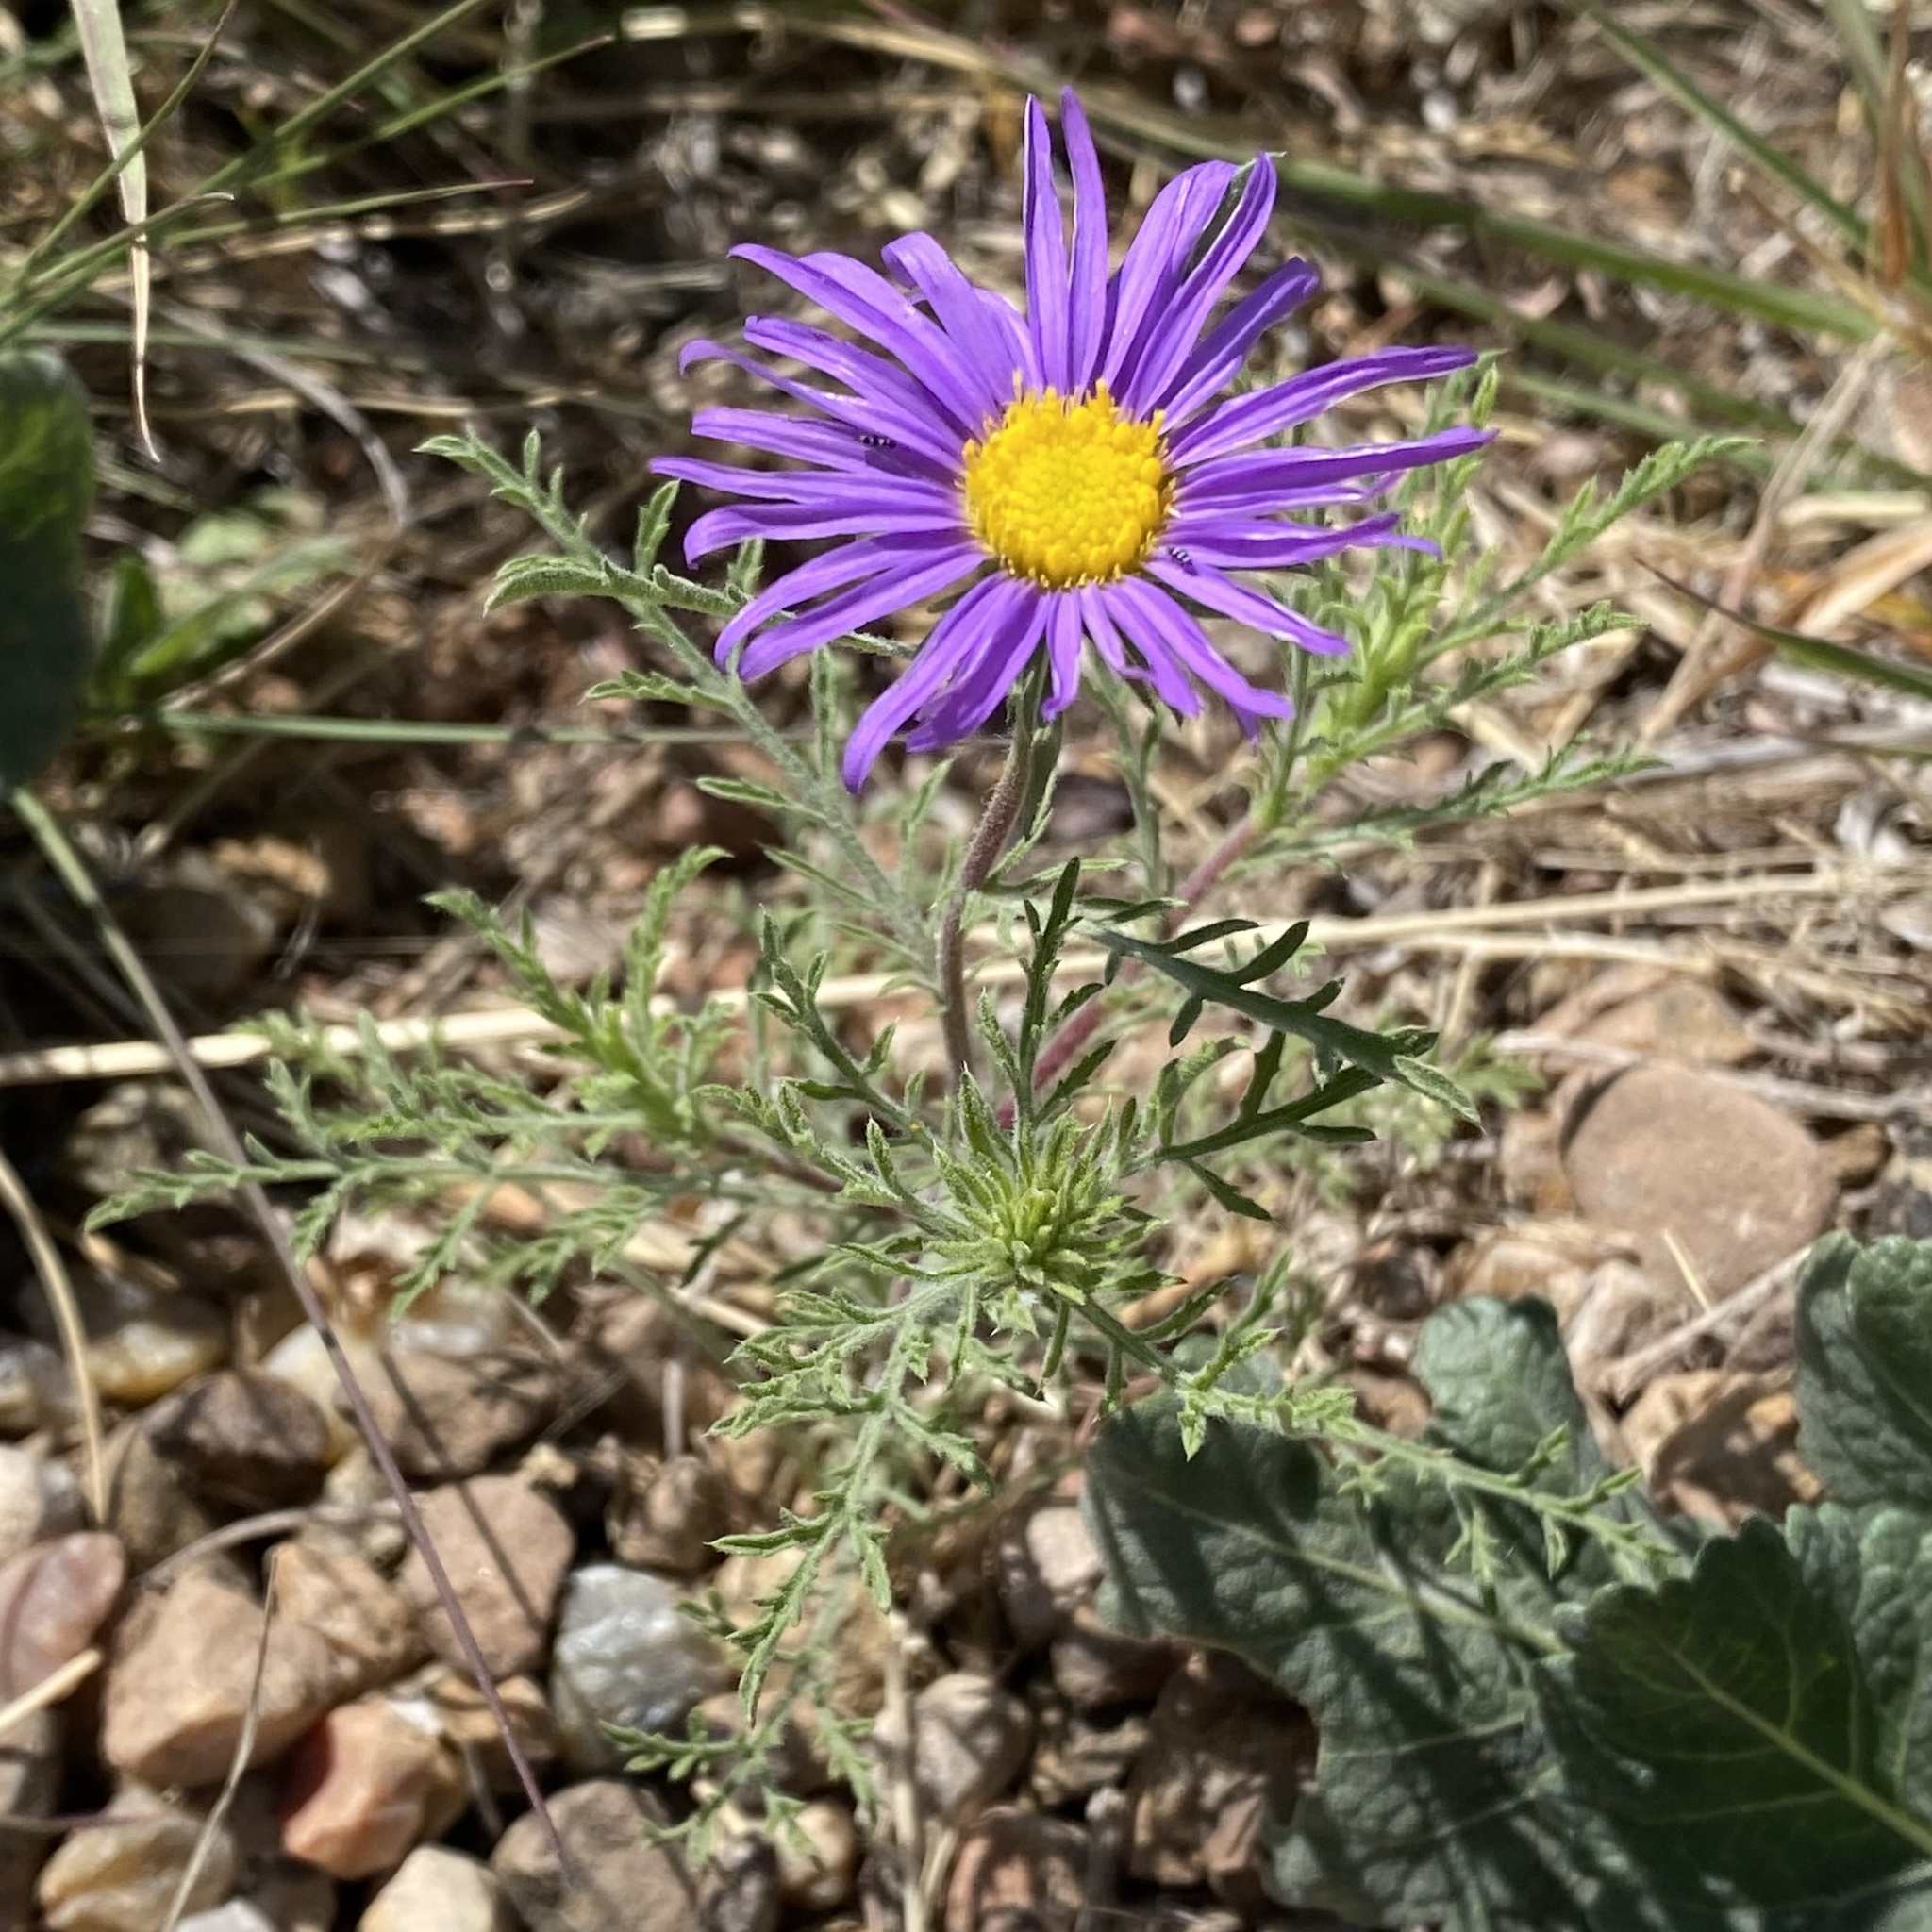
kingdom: Plantae
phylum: Tracheophyta
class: Magnoliopsida
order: Asterales
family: Asteraceae
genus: Machaeranthera
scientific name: Machaeranthera tanacetifolia
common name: Tansy-aster
